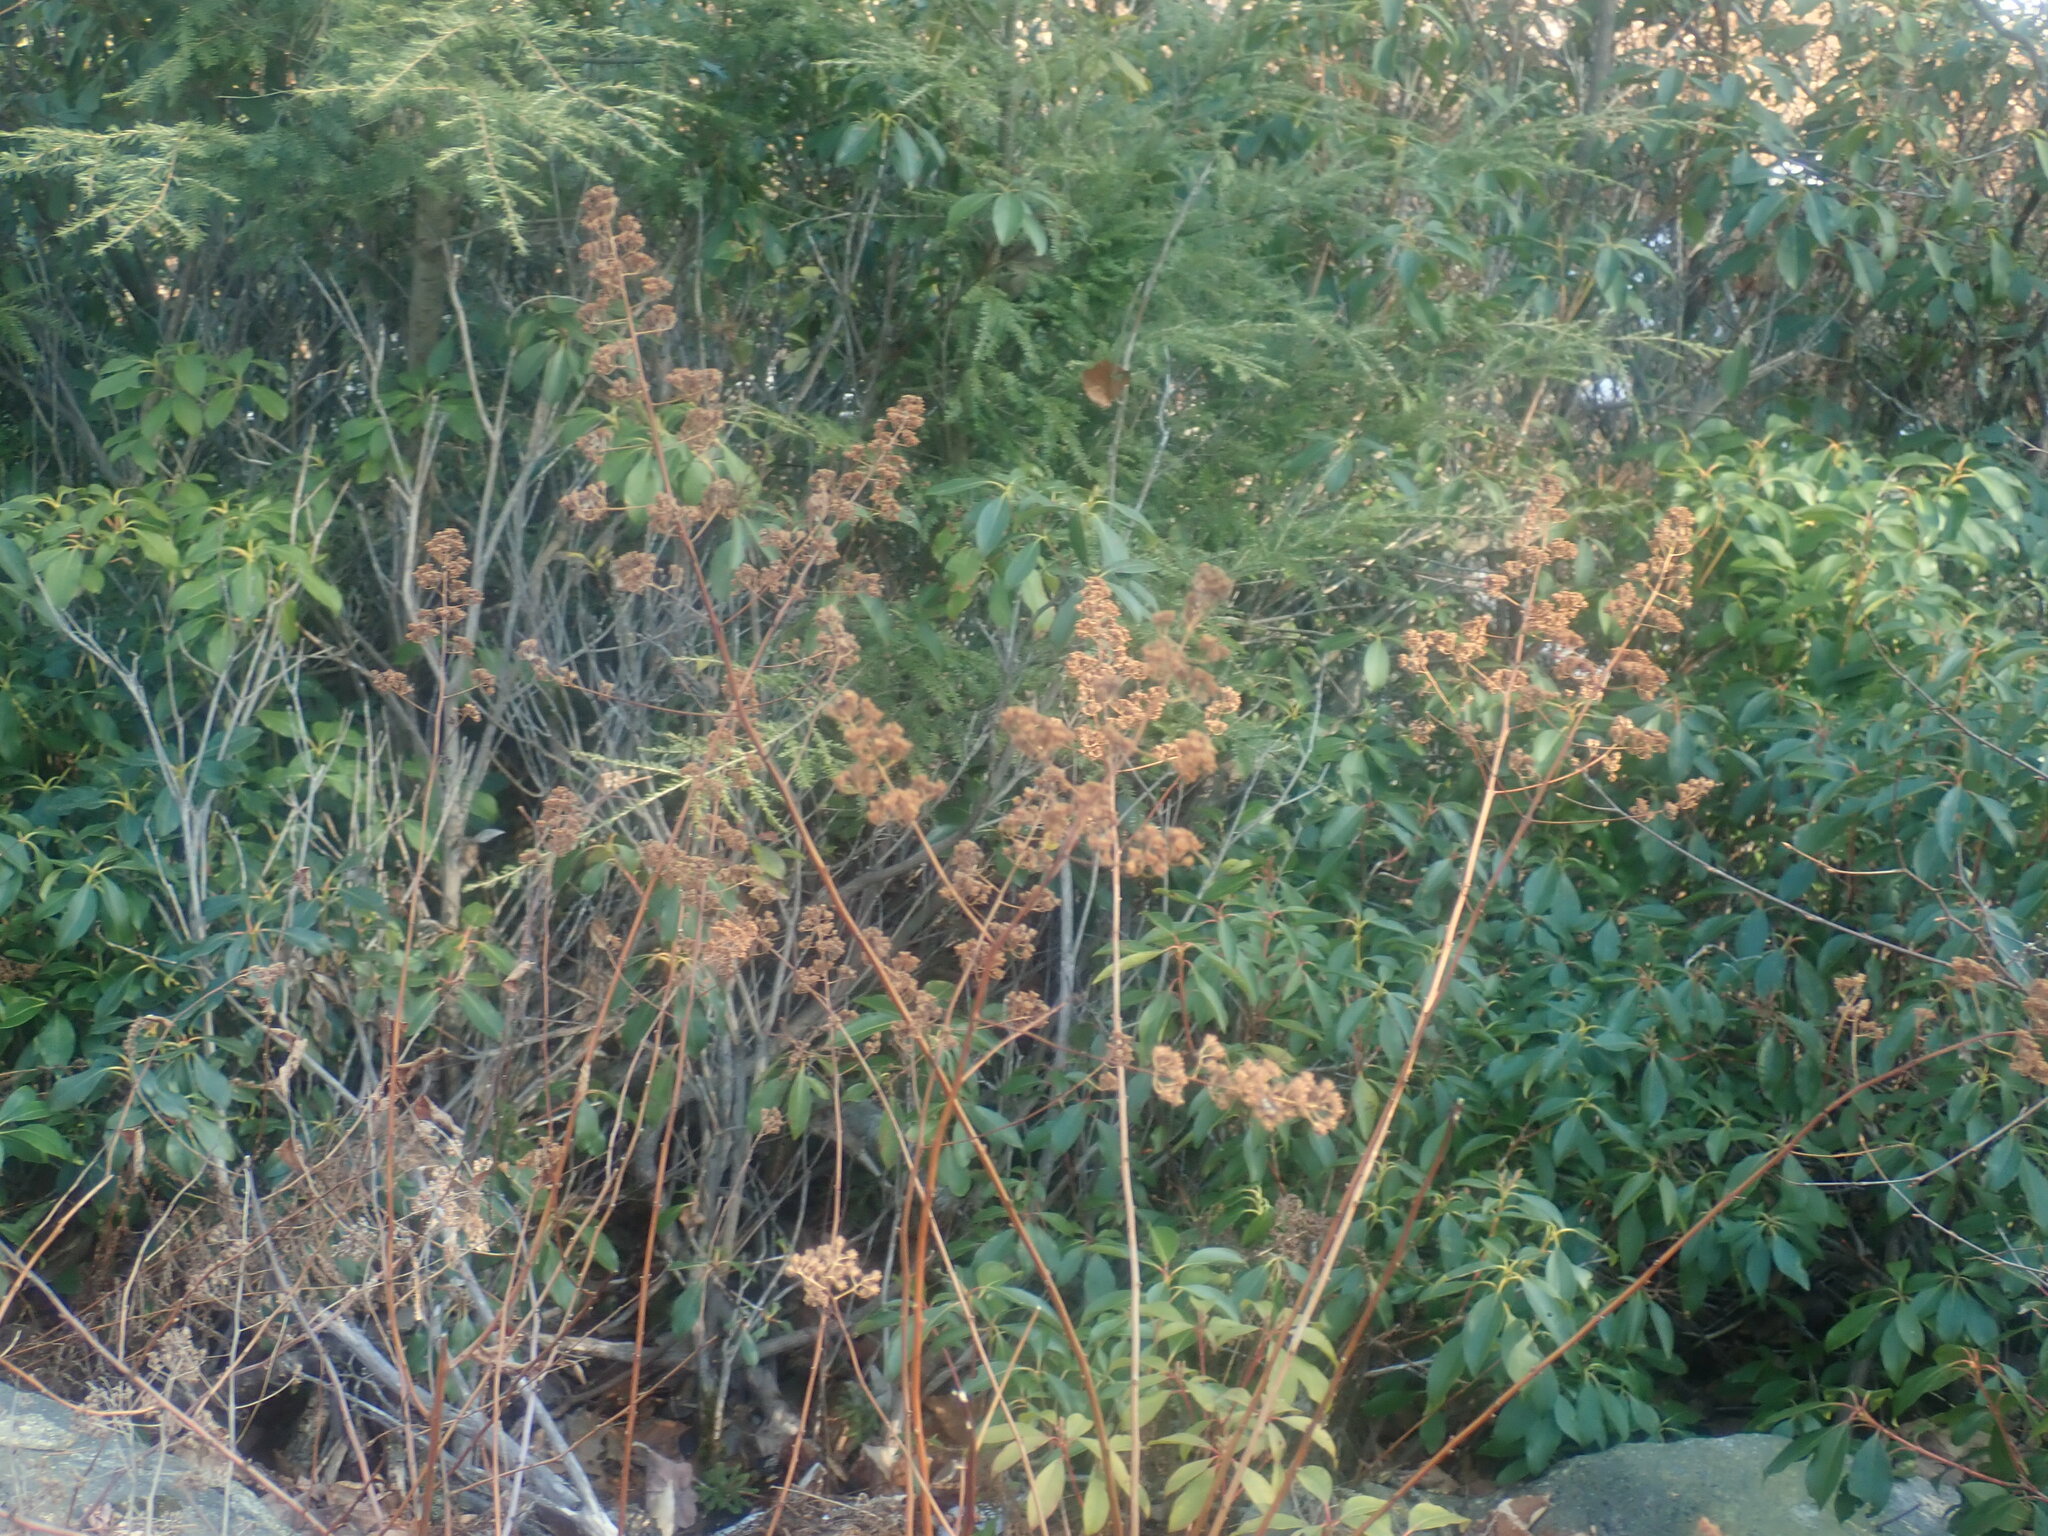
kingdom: Plantae
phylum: Tracheophyta
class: Magnoliopsida
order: Rosales
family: Rosaceae
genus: Spiraea
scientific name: Spiraea alba
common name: Pale bridewort
